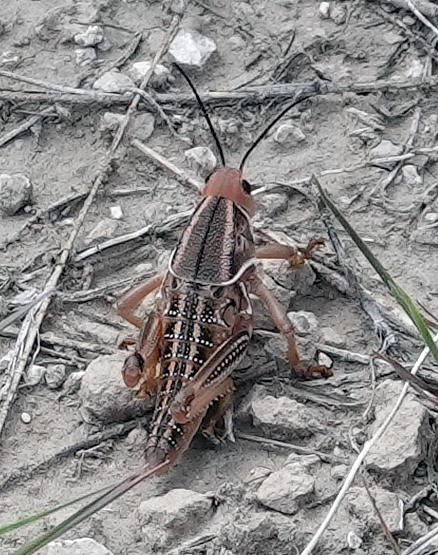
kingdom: Animalia
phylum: Arthropoda
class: Insecta
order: Orthoptera
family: Romaleidae
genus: Brachystola
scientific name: Brachystola magna
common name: Plains lubber grasshopper
